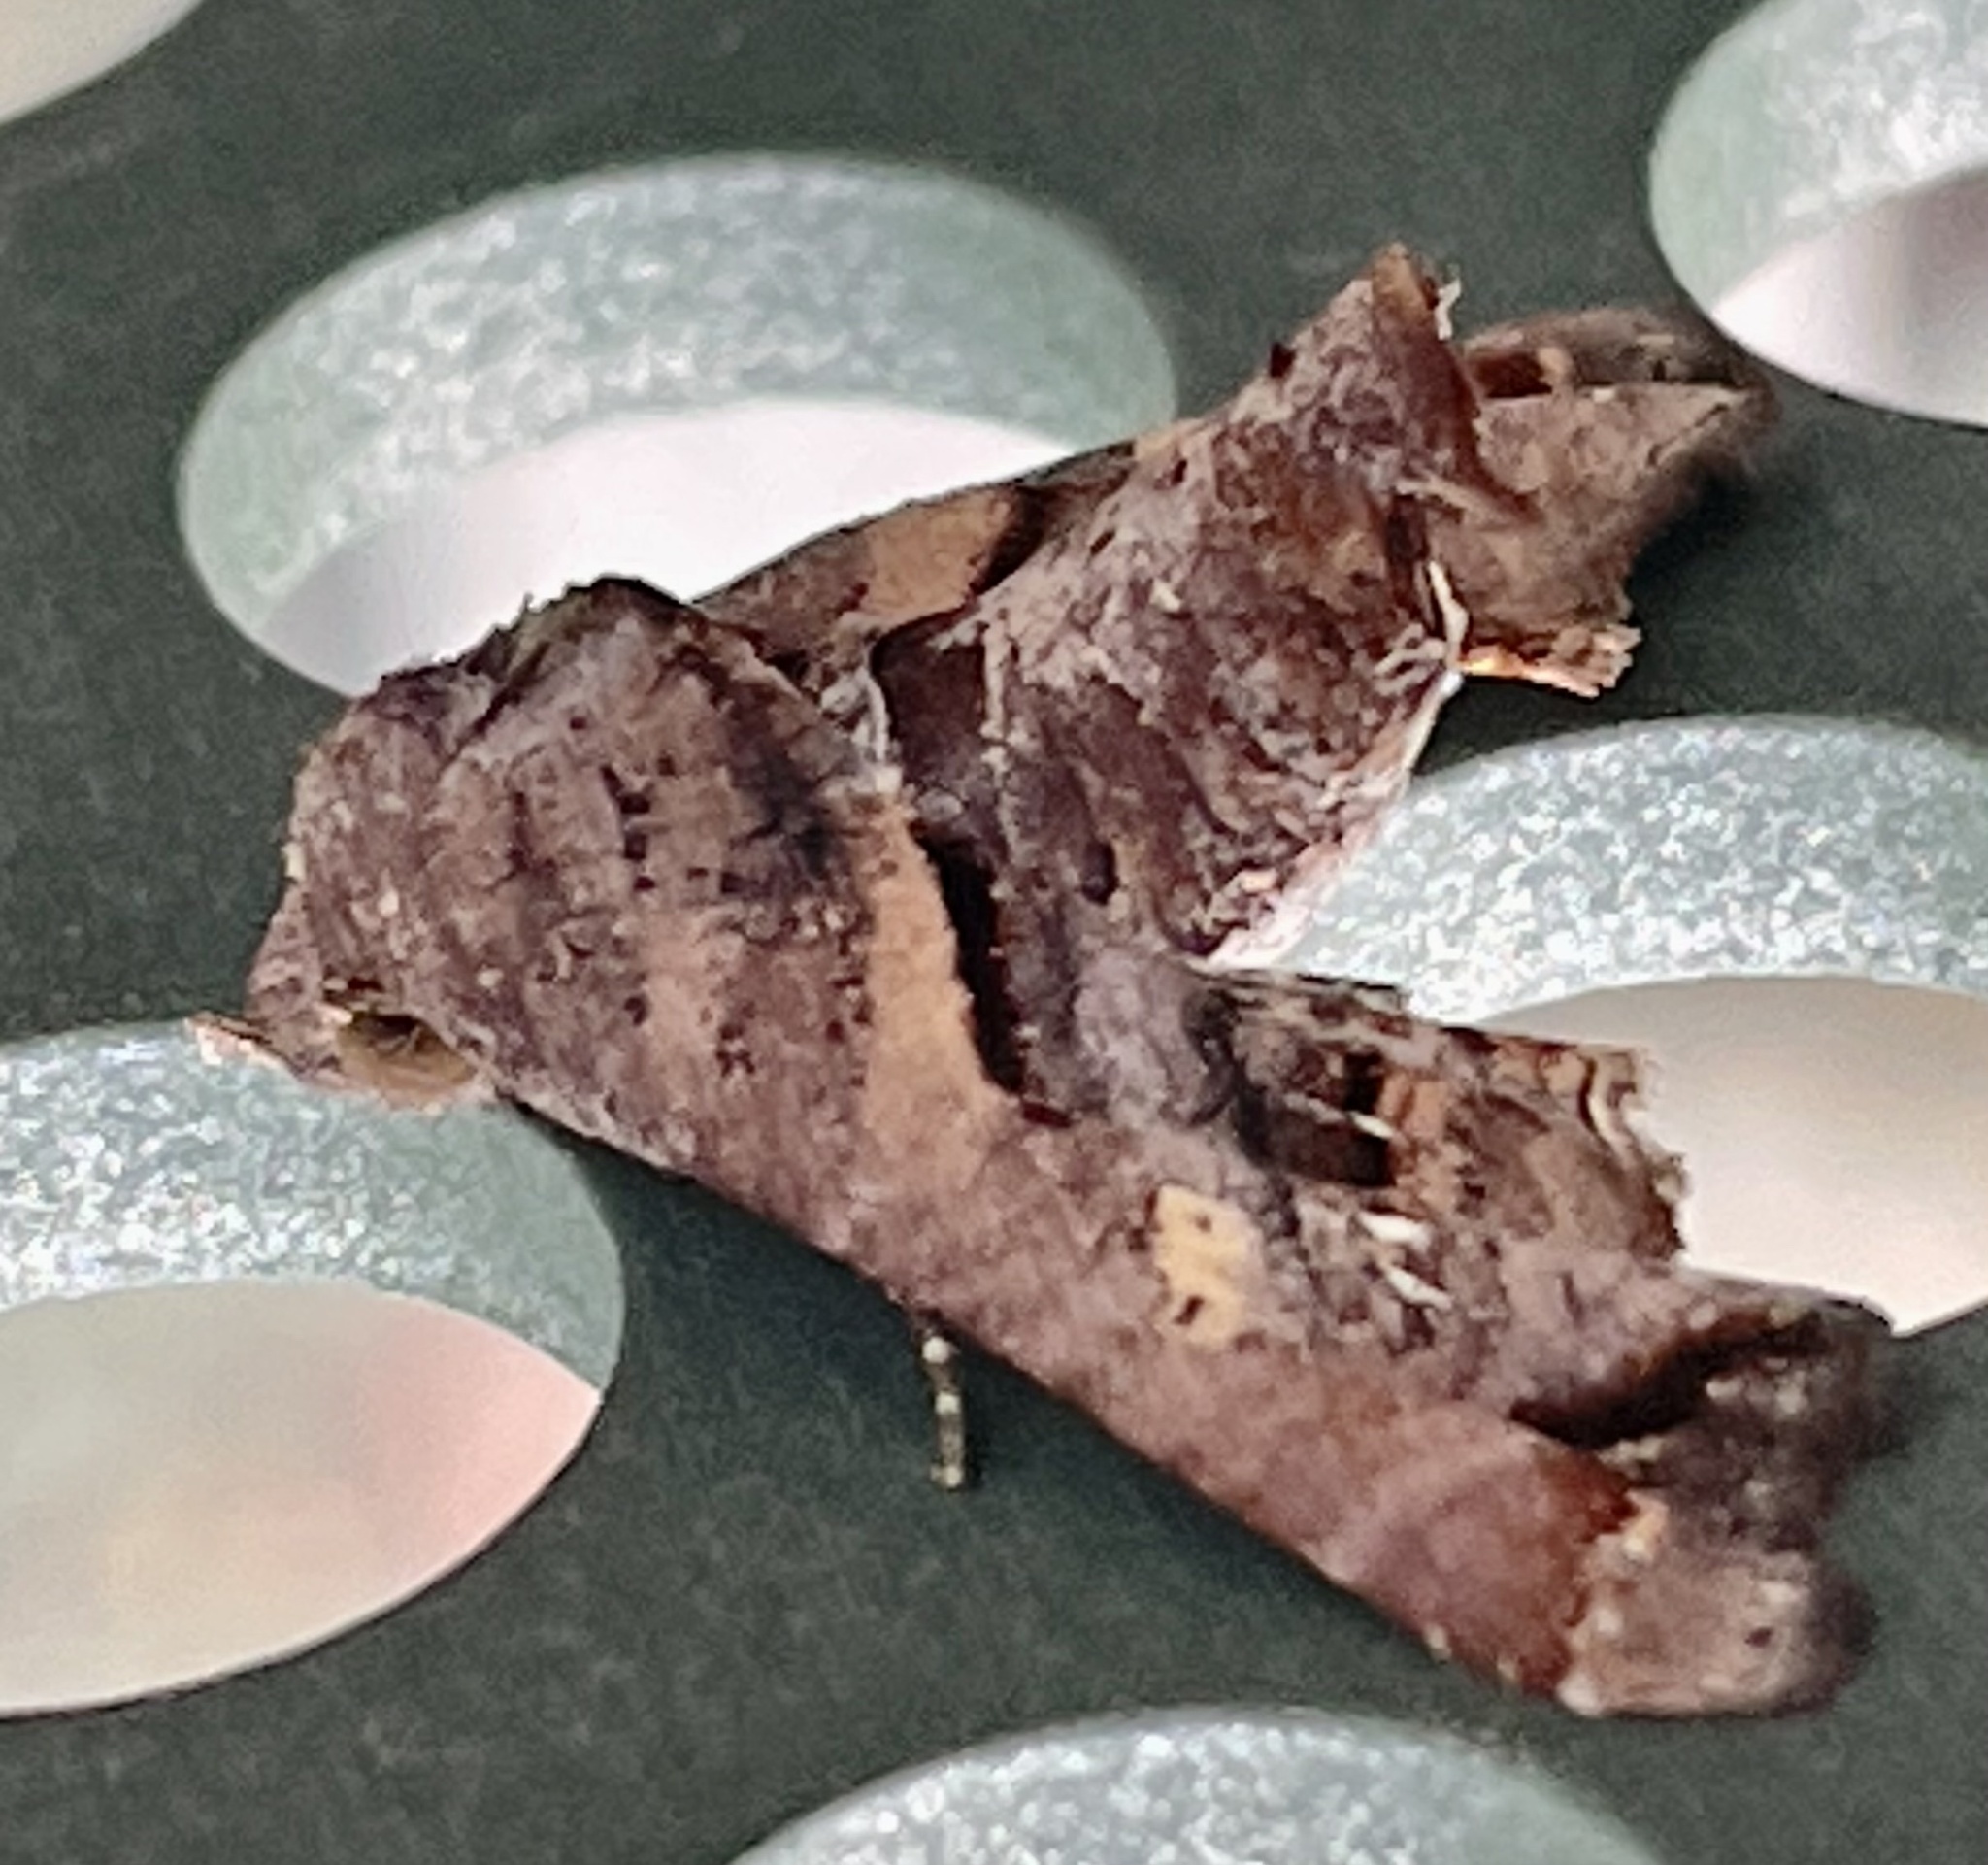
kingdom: Animalia
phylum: Arthropoda
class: Insecta
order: Lepidoptera
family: Euteliidae
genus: Targalla
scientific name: Targalla plumbea
